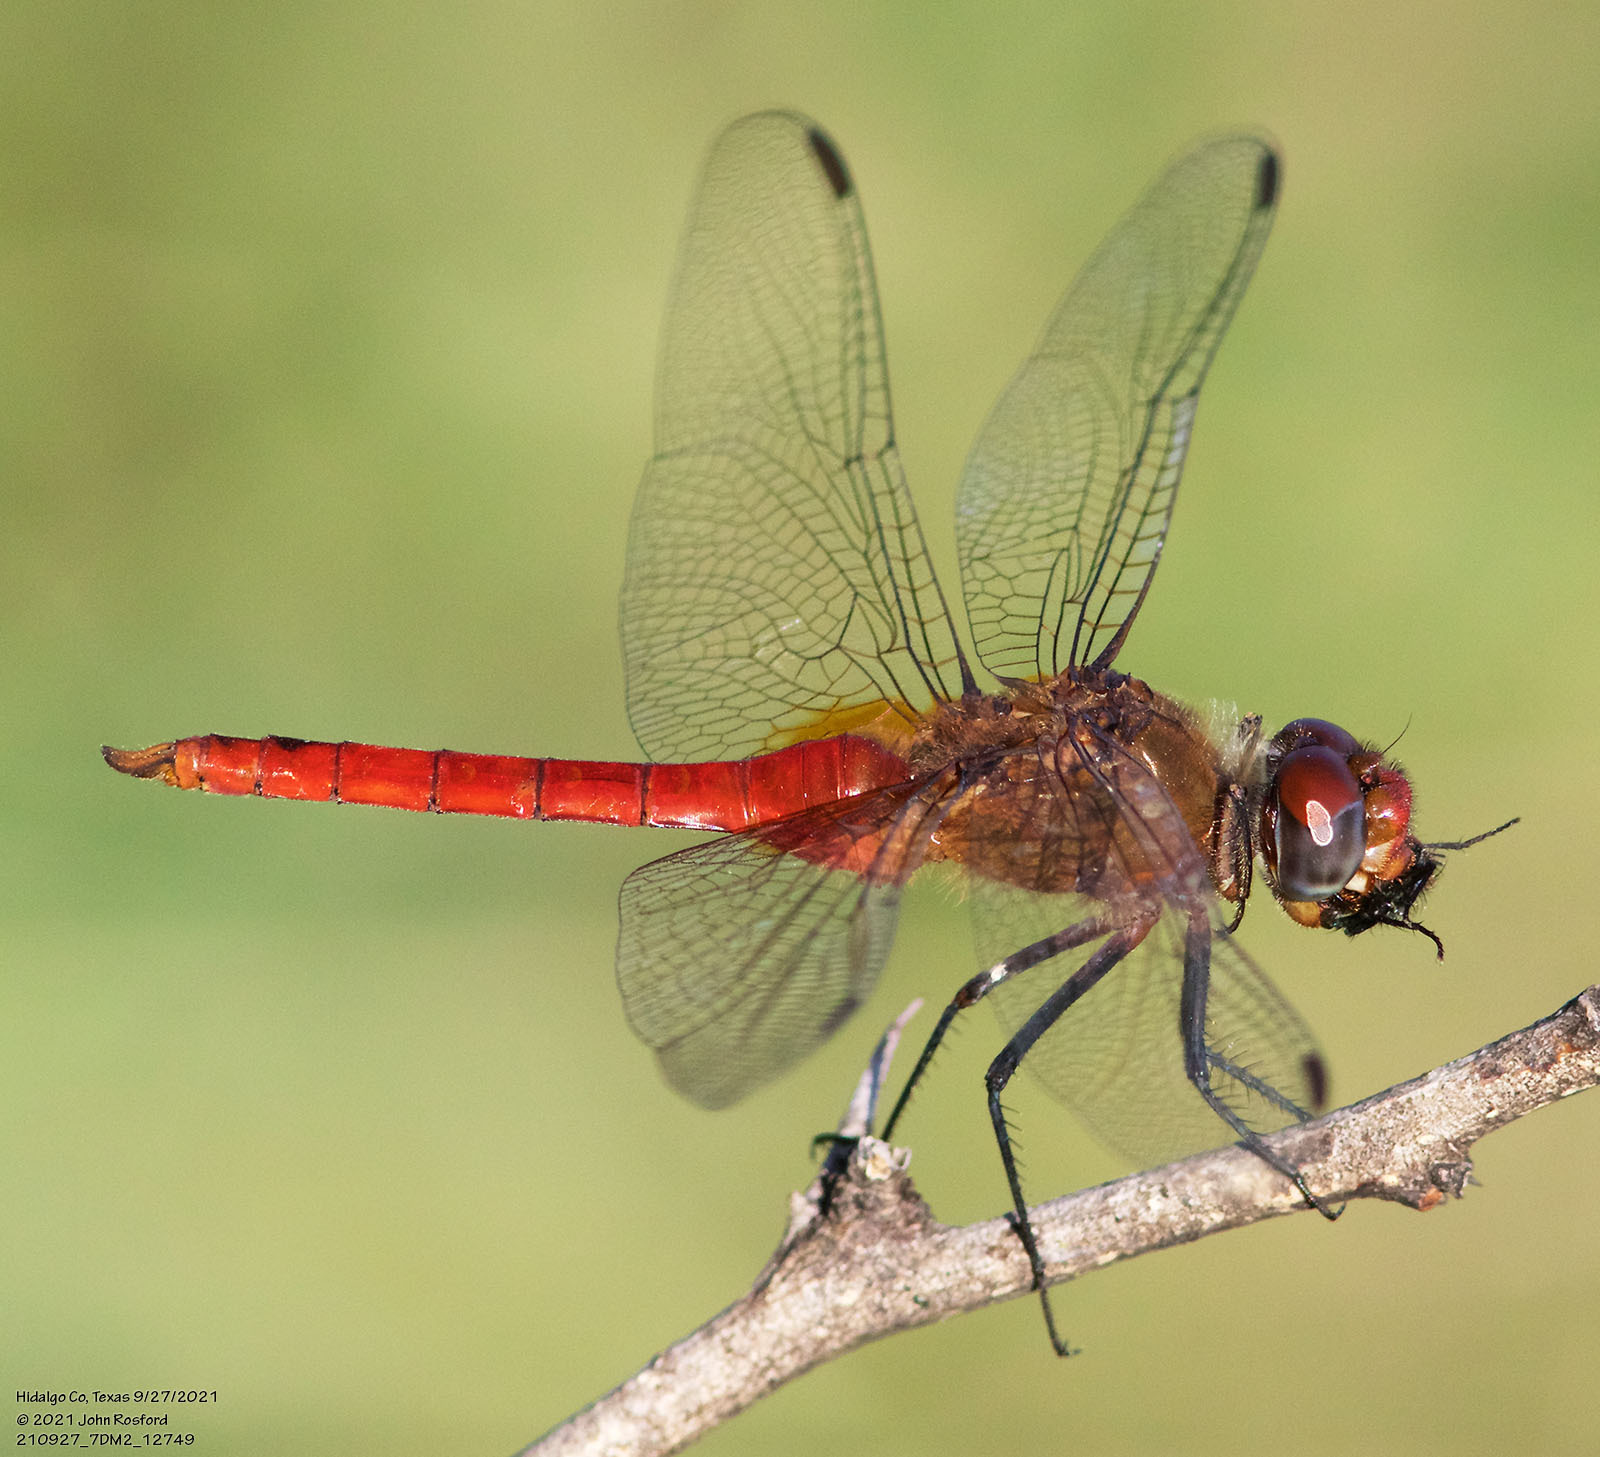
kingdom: Animalia
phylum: Arthropoda
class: Insecta
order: Odonata
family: Libellulidae
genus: Brachymesia
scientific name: Brachymesia furcata
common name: Red-taled pennant
